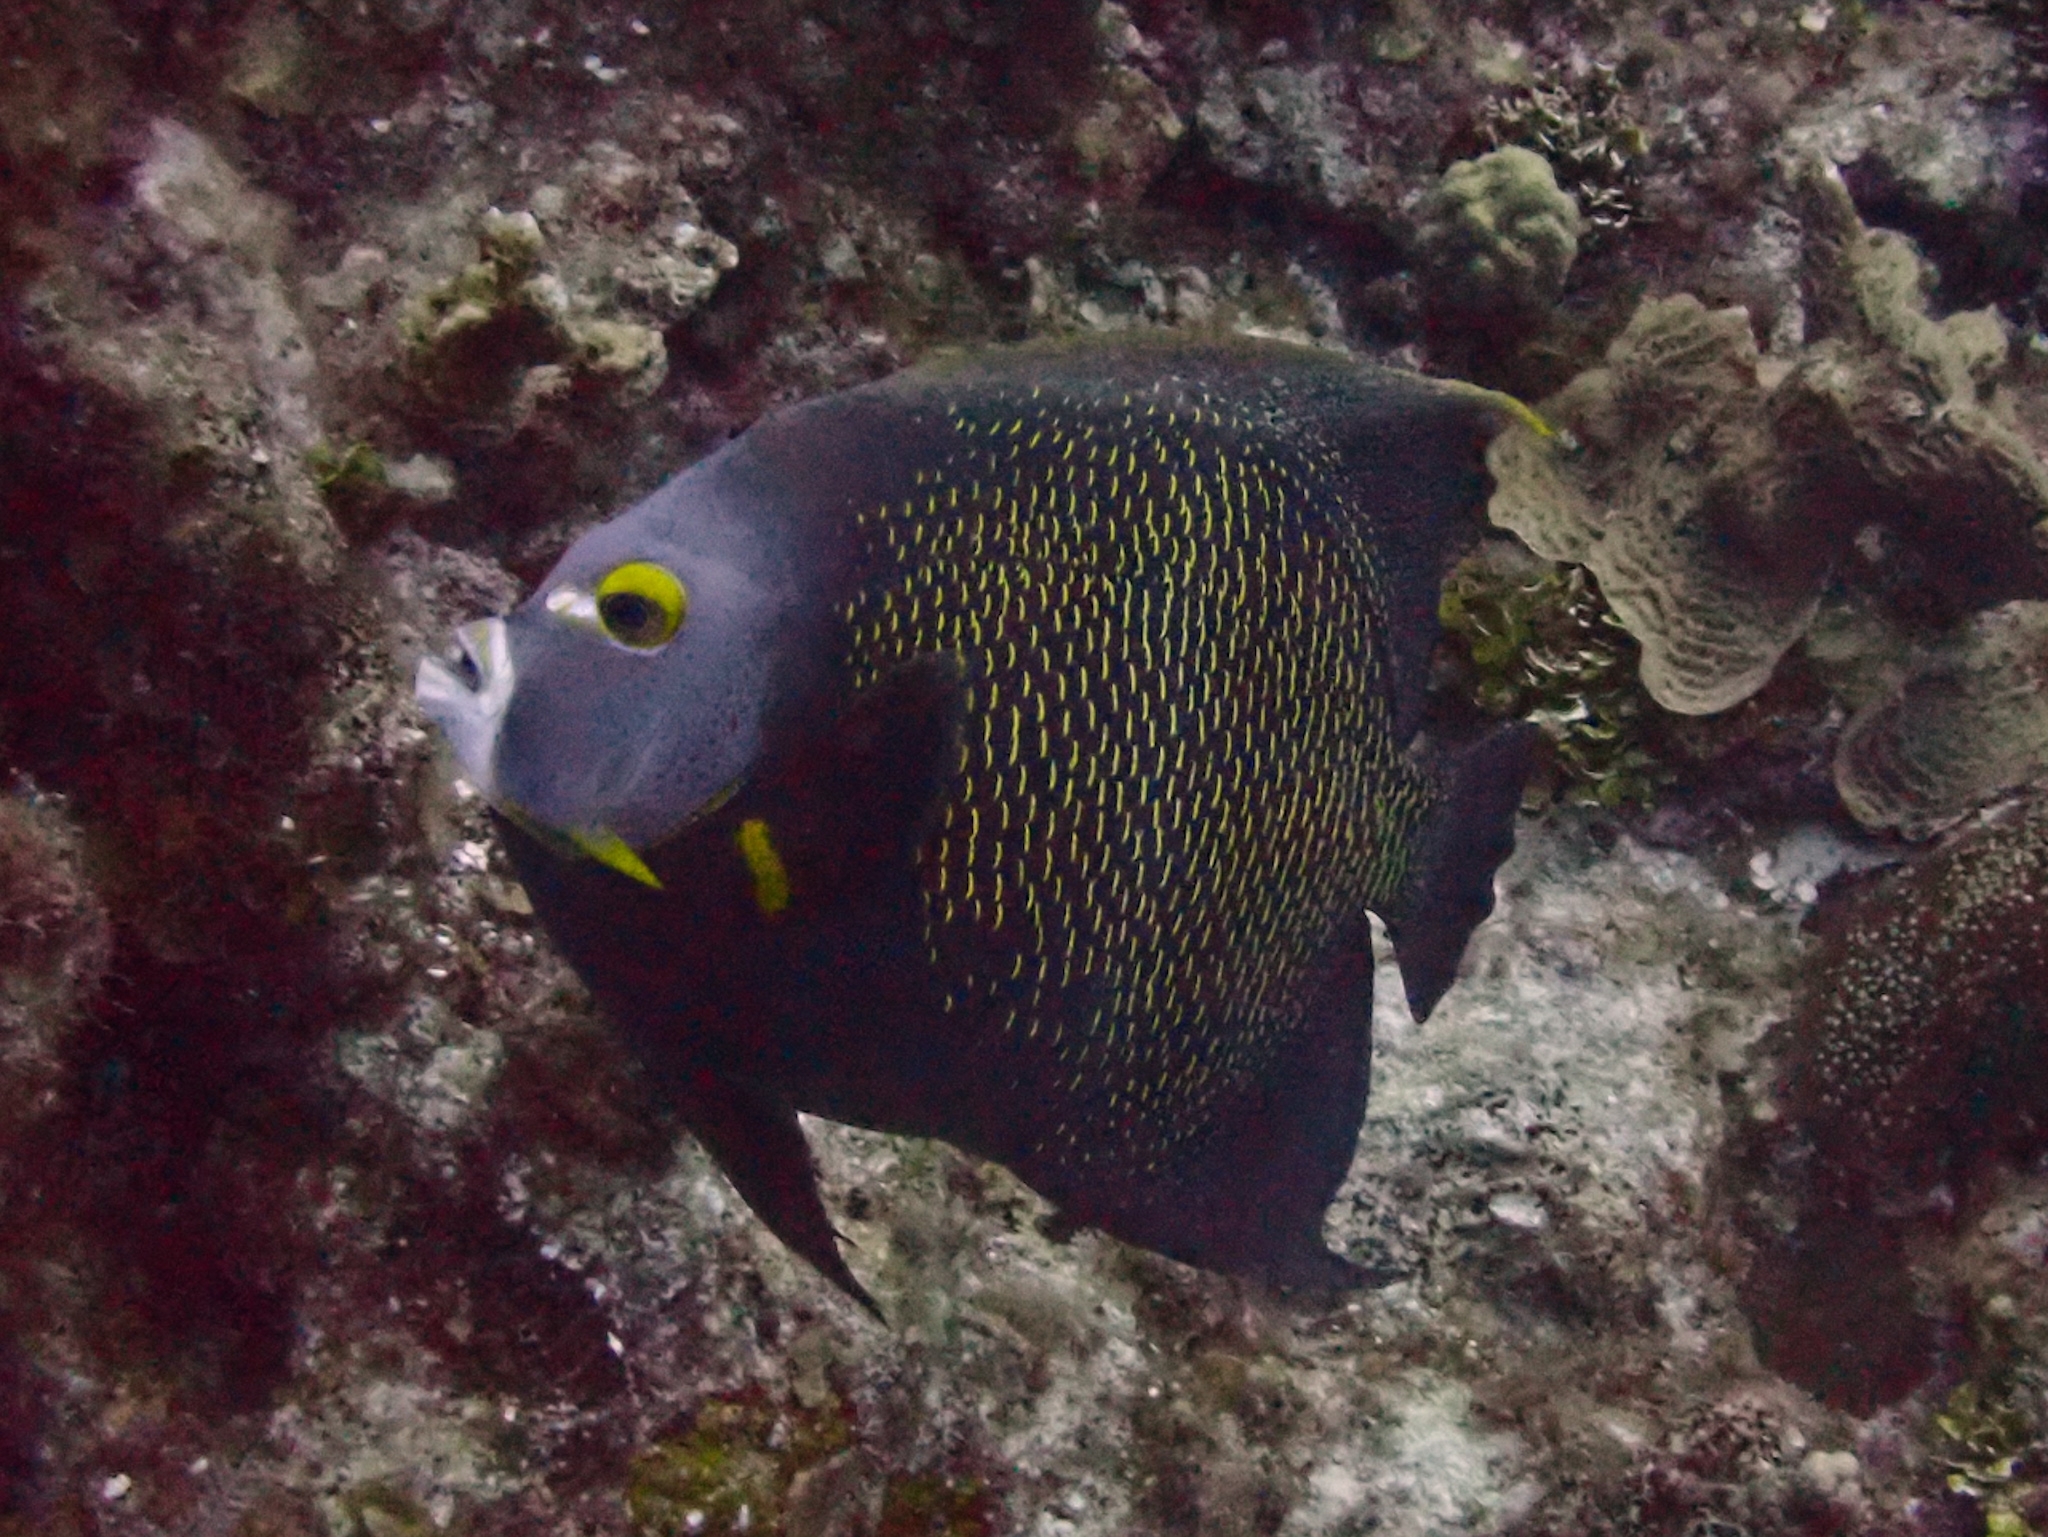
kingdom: Animalia
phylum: Chordata
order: Perciformes
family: Pomacanthidae
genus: Pomacanthus
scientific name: Pomacanthus paru
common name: French angelfish
